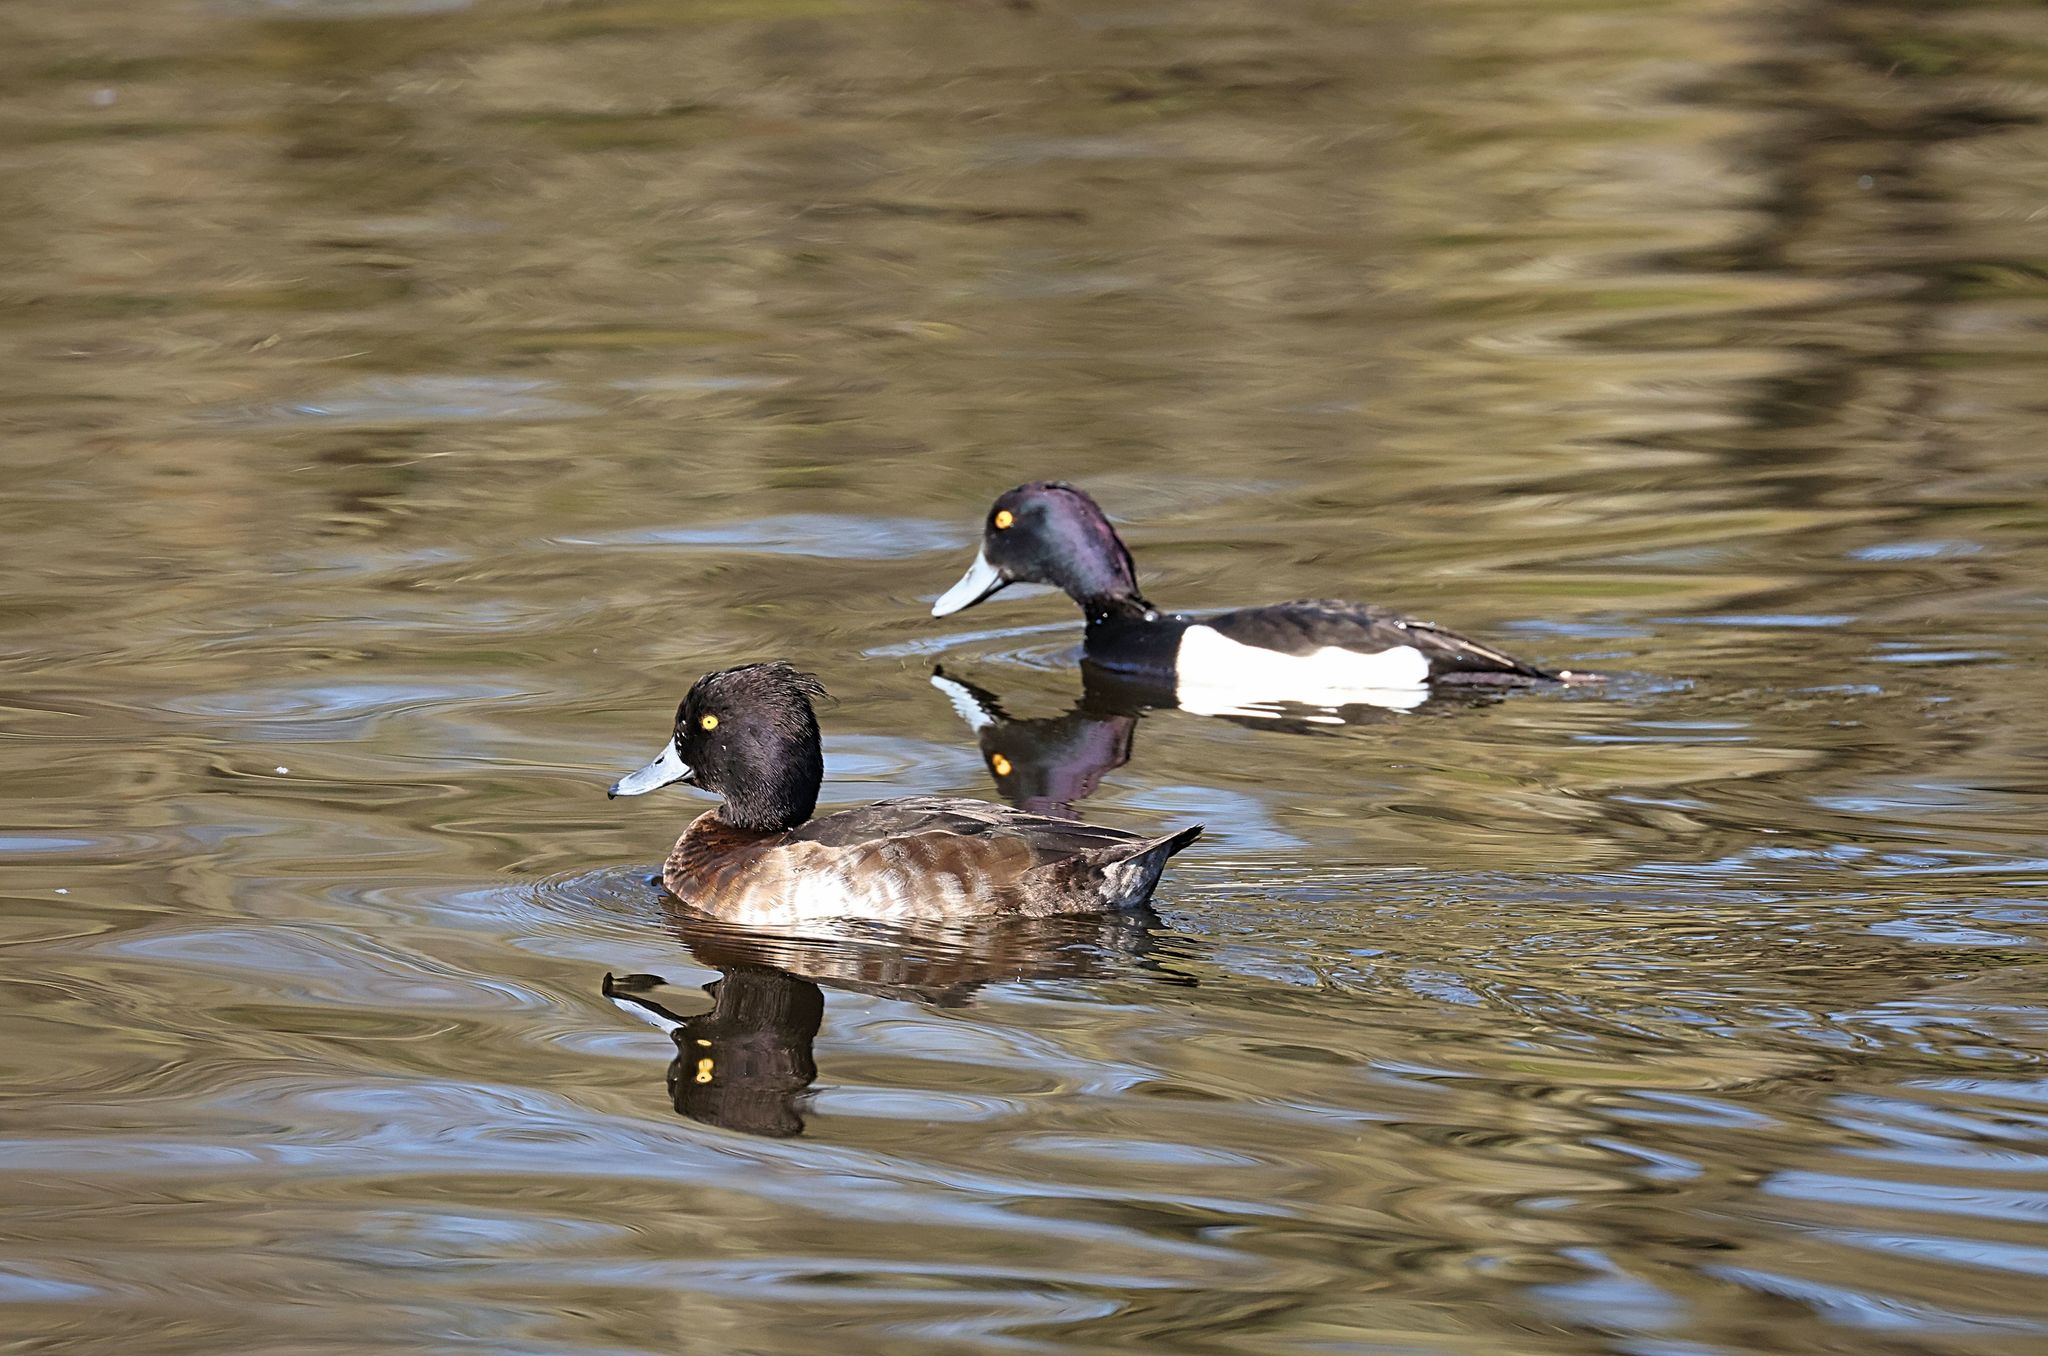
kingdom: Animalia
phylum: Chordata
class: Aves
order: Anseriformes
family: Anatidae
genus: Aythya
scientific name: Aythya fuligula
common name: Tufted duck
